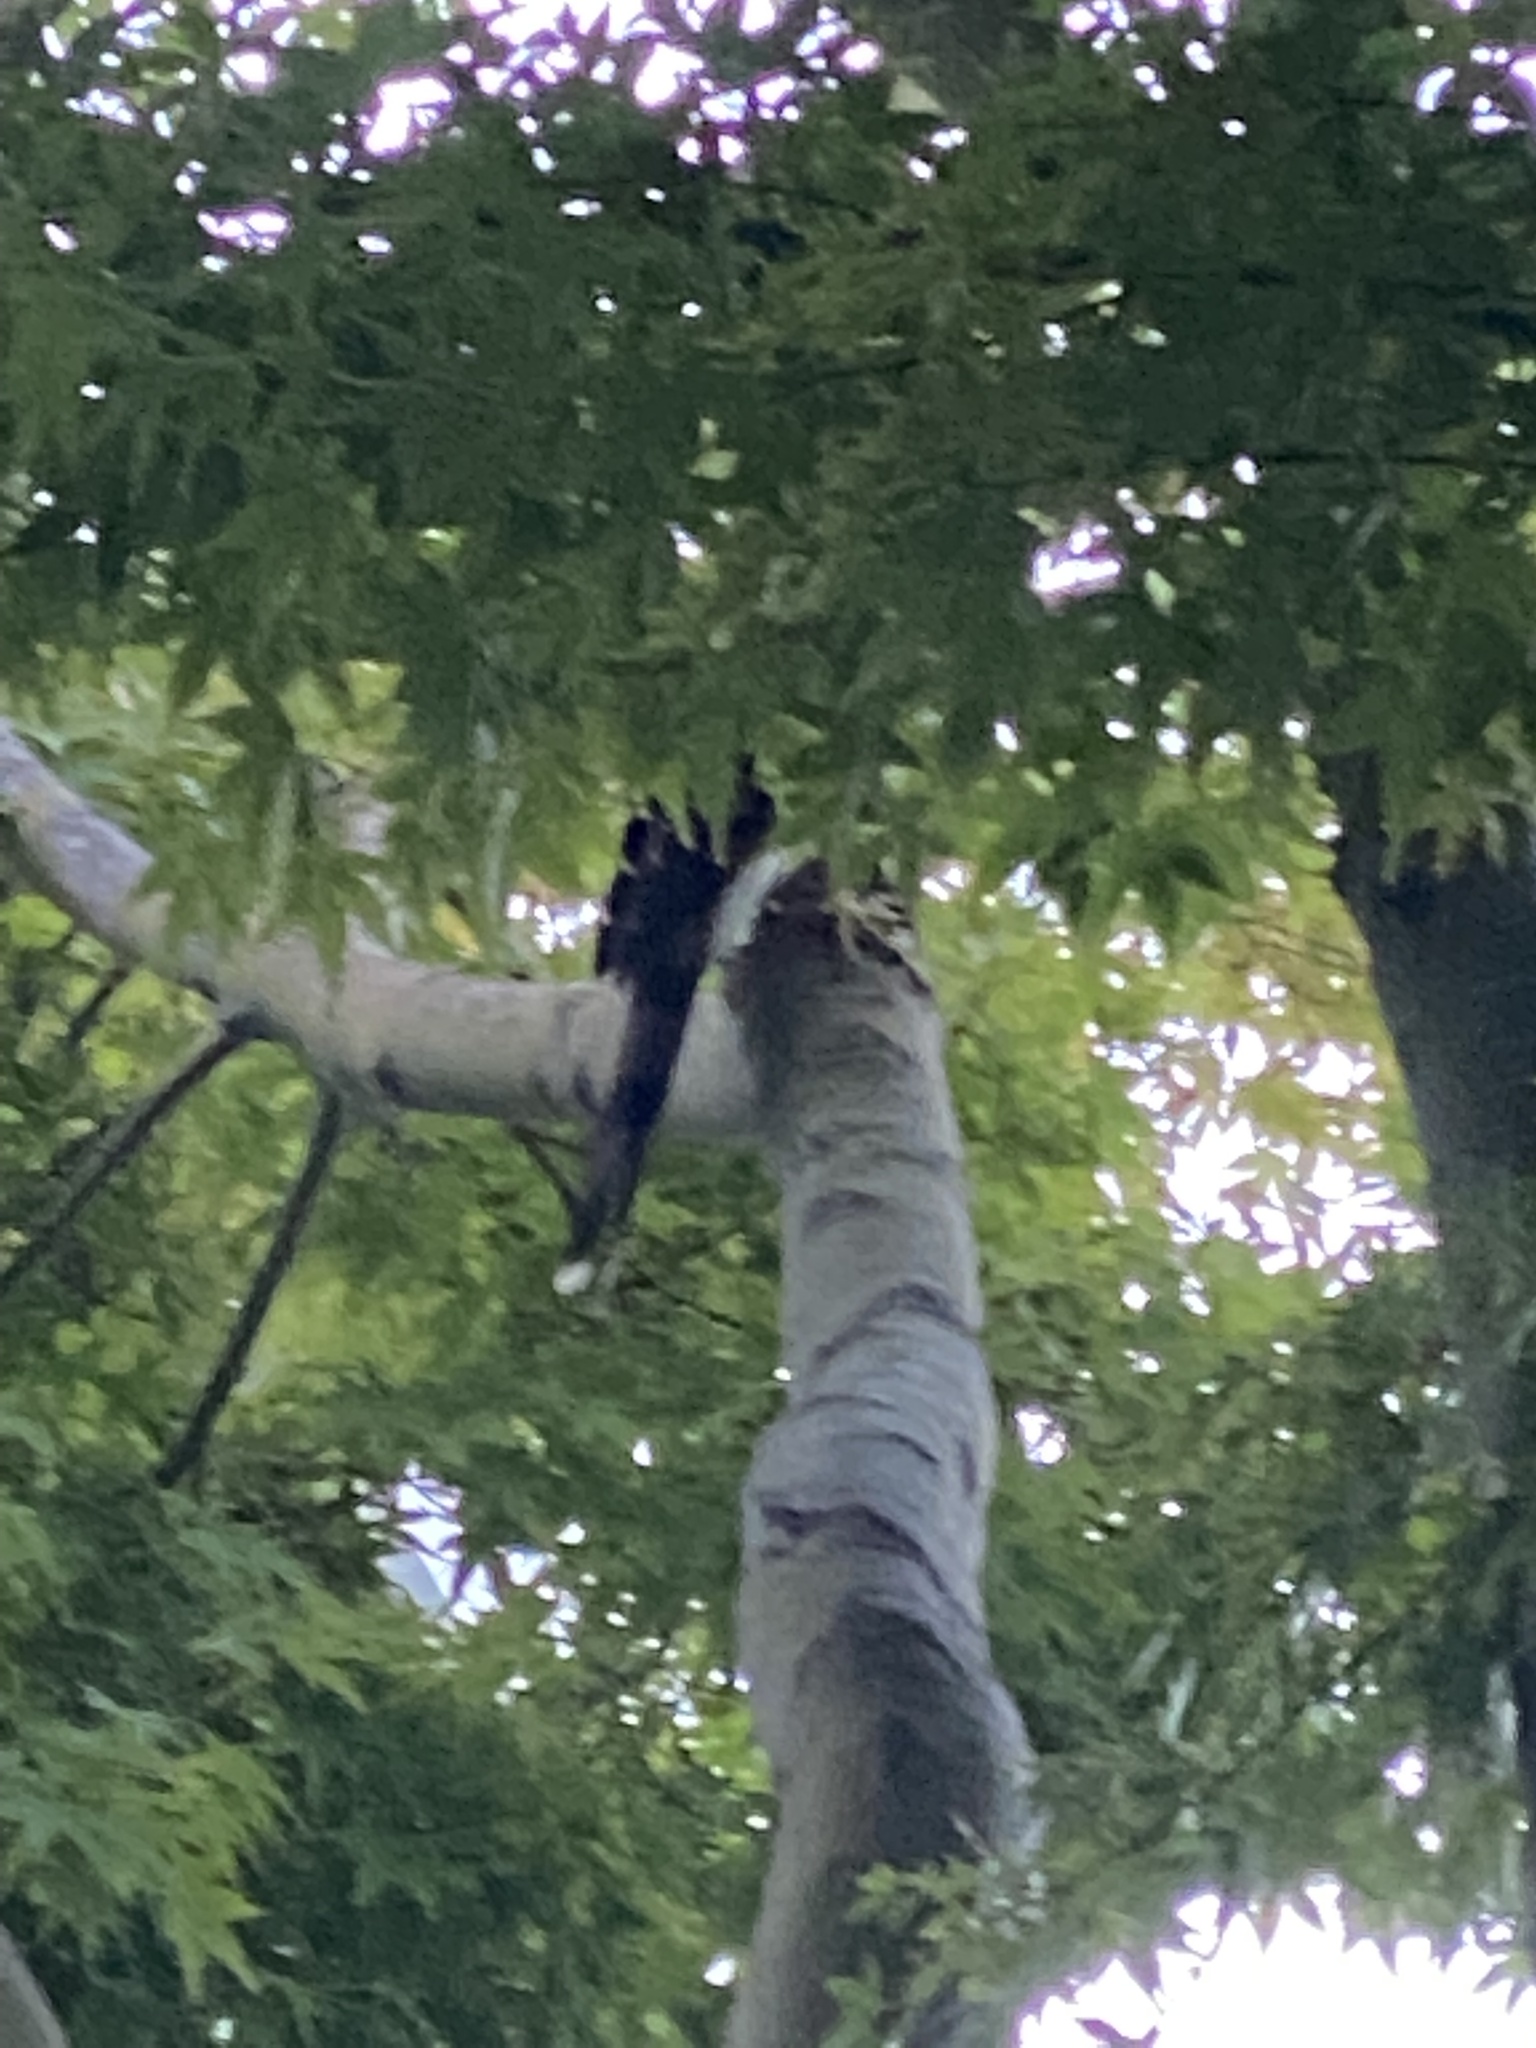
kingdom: Animalia
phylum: Chordata
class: Aves
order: Accipitriformes
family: Accipitridae
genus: Accipiter
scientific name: Accipiter cooperii
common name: Cooper's hawk
